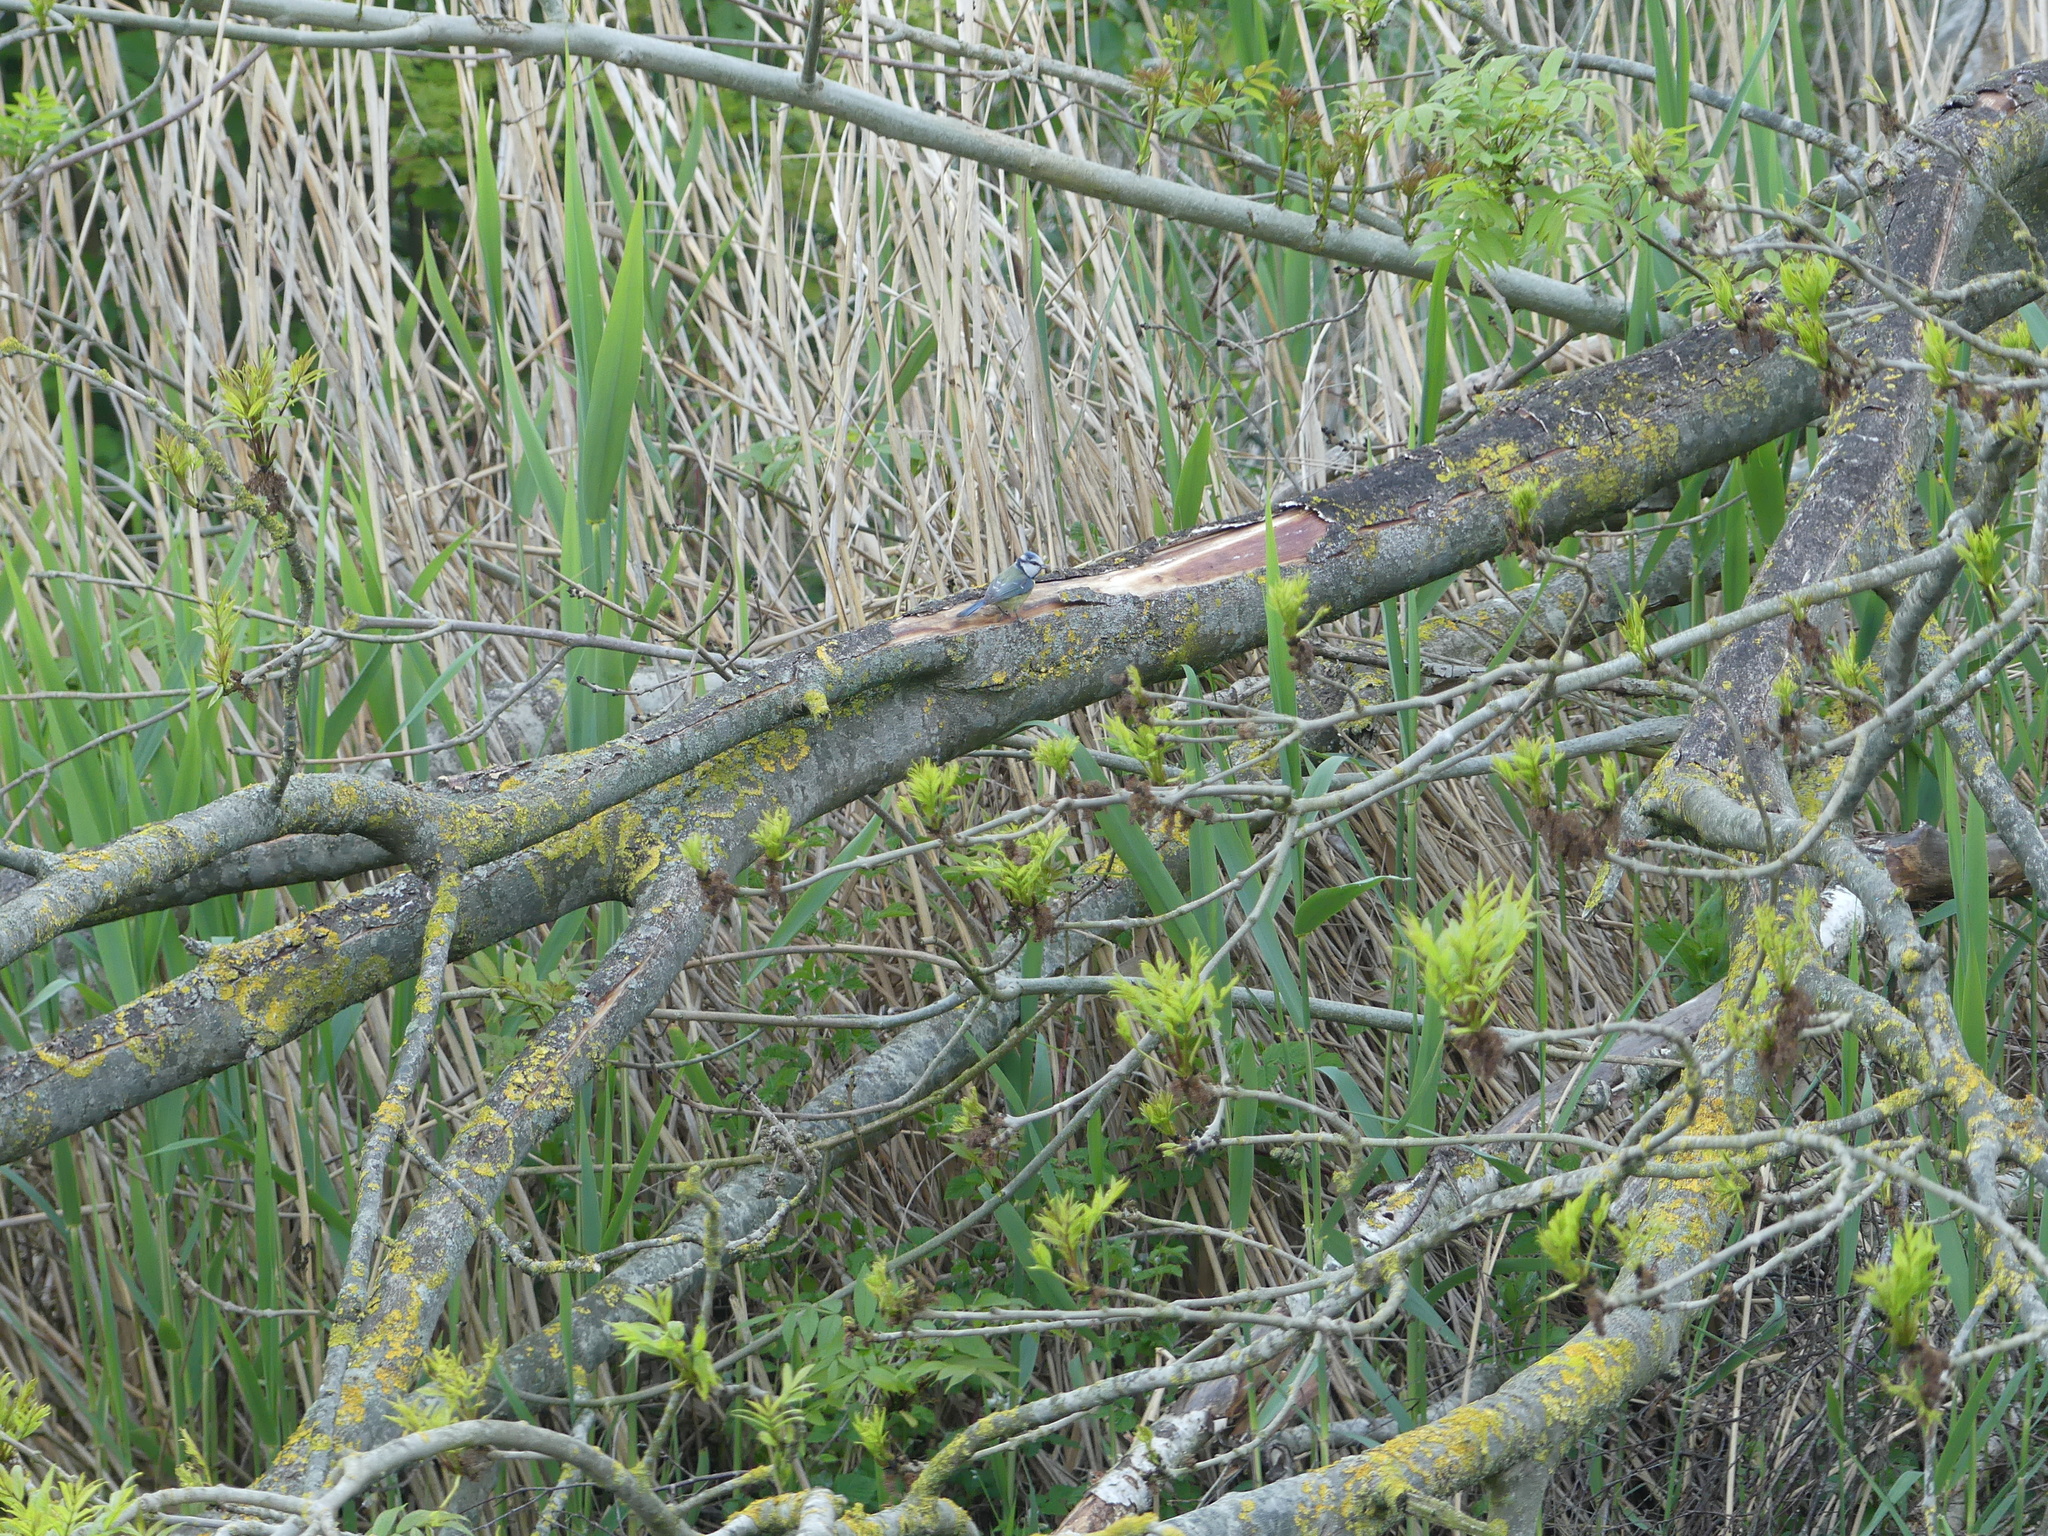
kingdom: Animalia
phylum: Chordata
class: Aves
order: Passeriformes
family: Paridae
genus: Cyanistes
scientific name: Cyanistes caeruleus
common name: Eurasian blue tit
